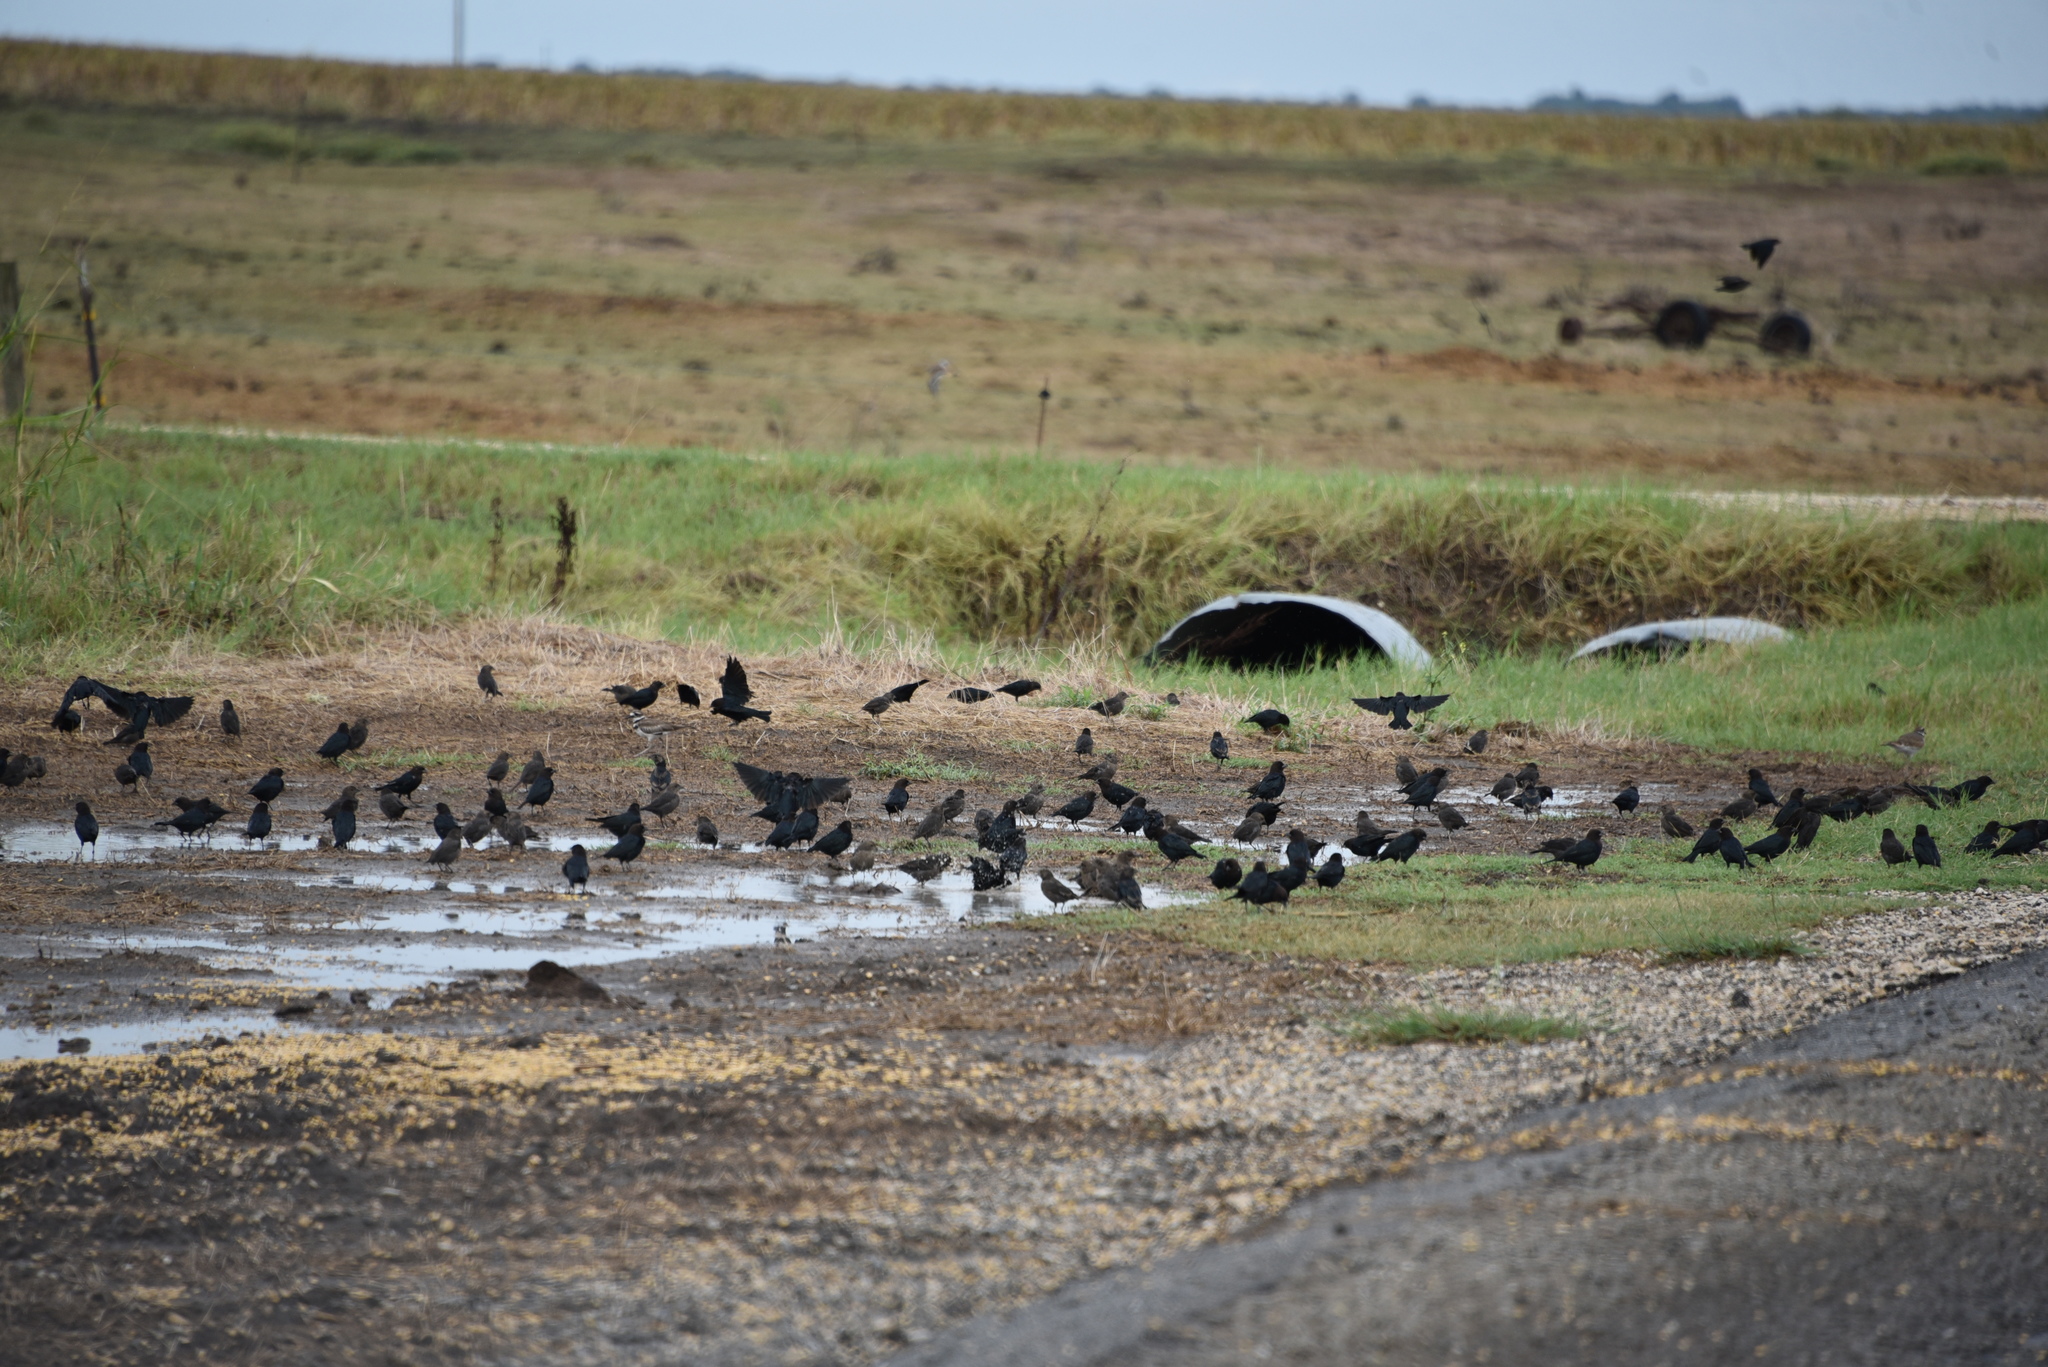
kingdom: Animalia
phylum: Chordata
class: Aves
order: Passeriformes
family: Icteridae
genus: Molothrus
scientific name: Molothrus ater
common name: Brown-headed cowbird
